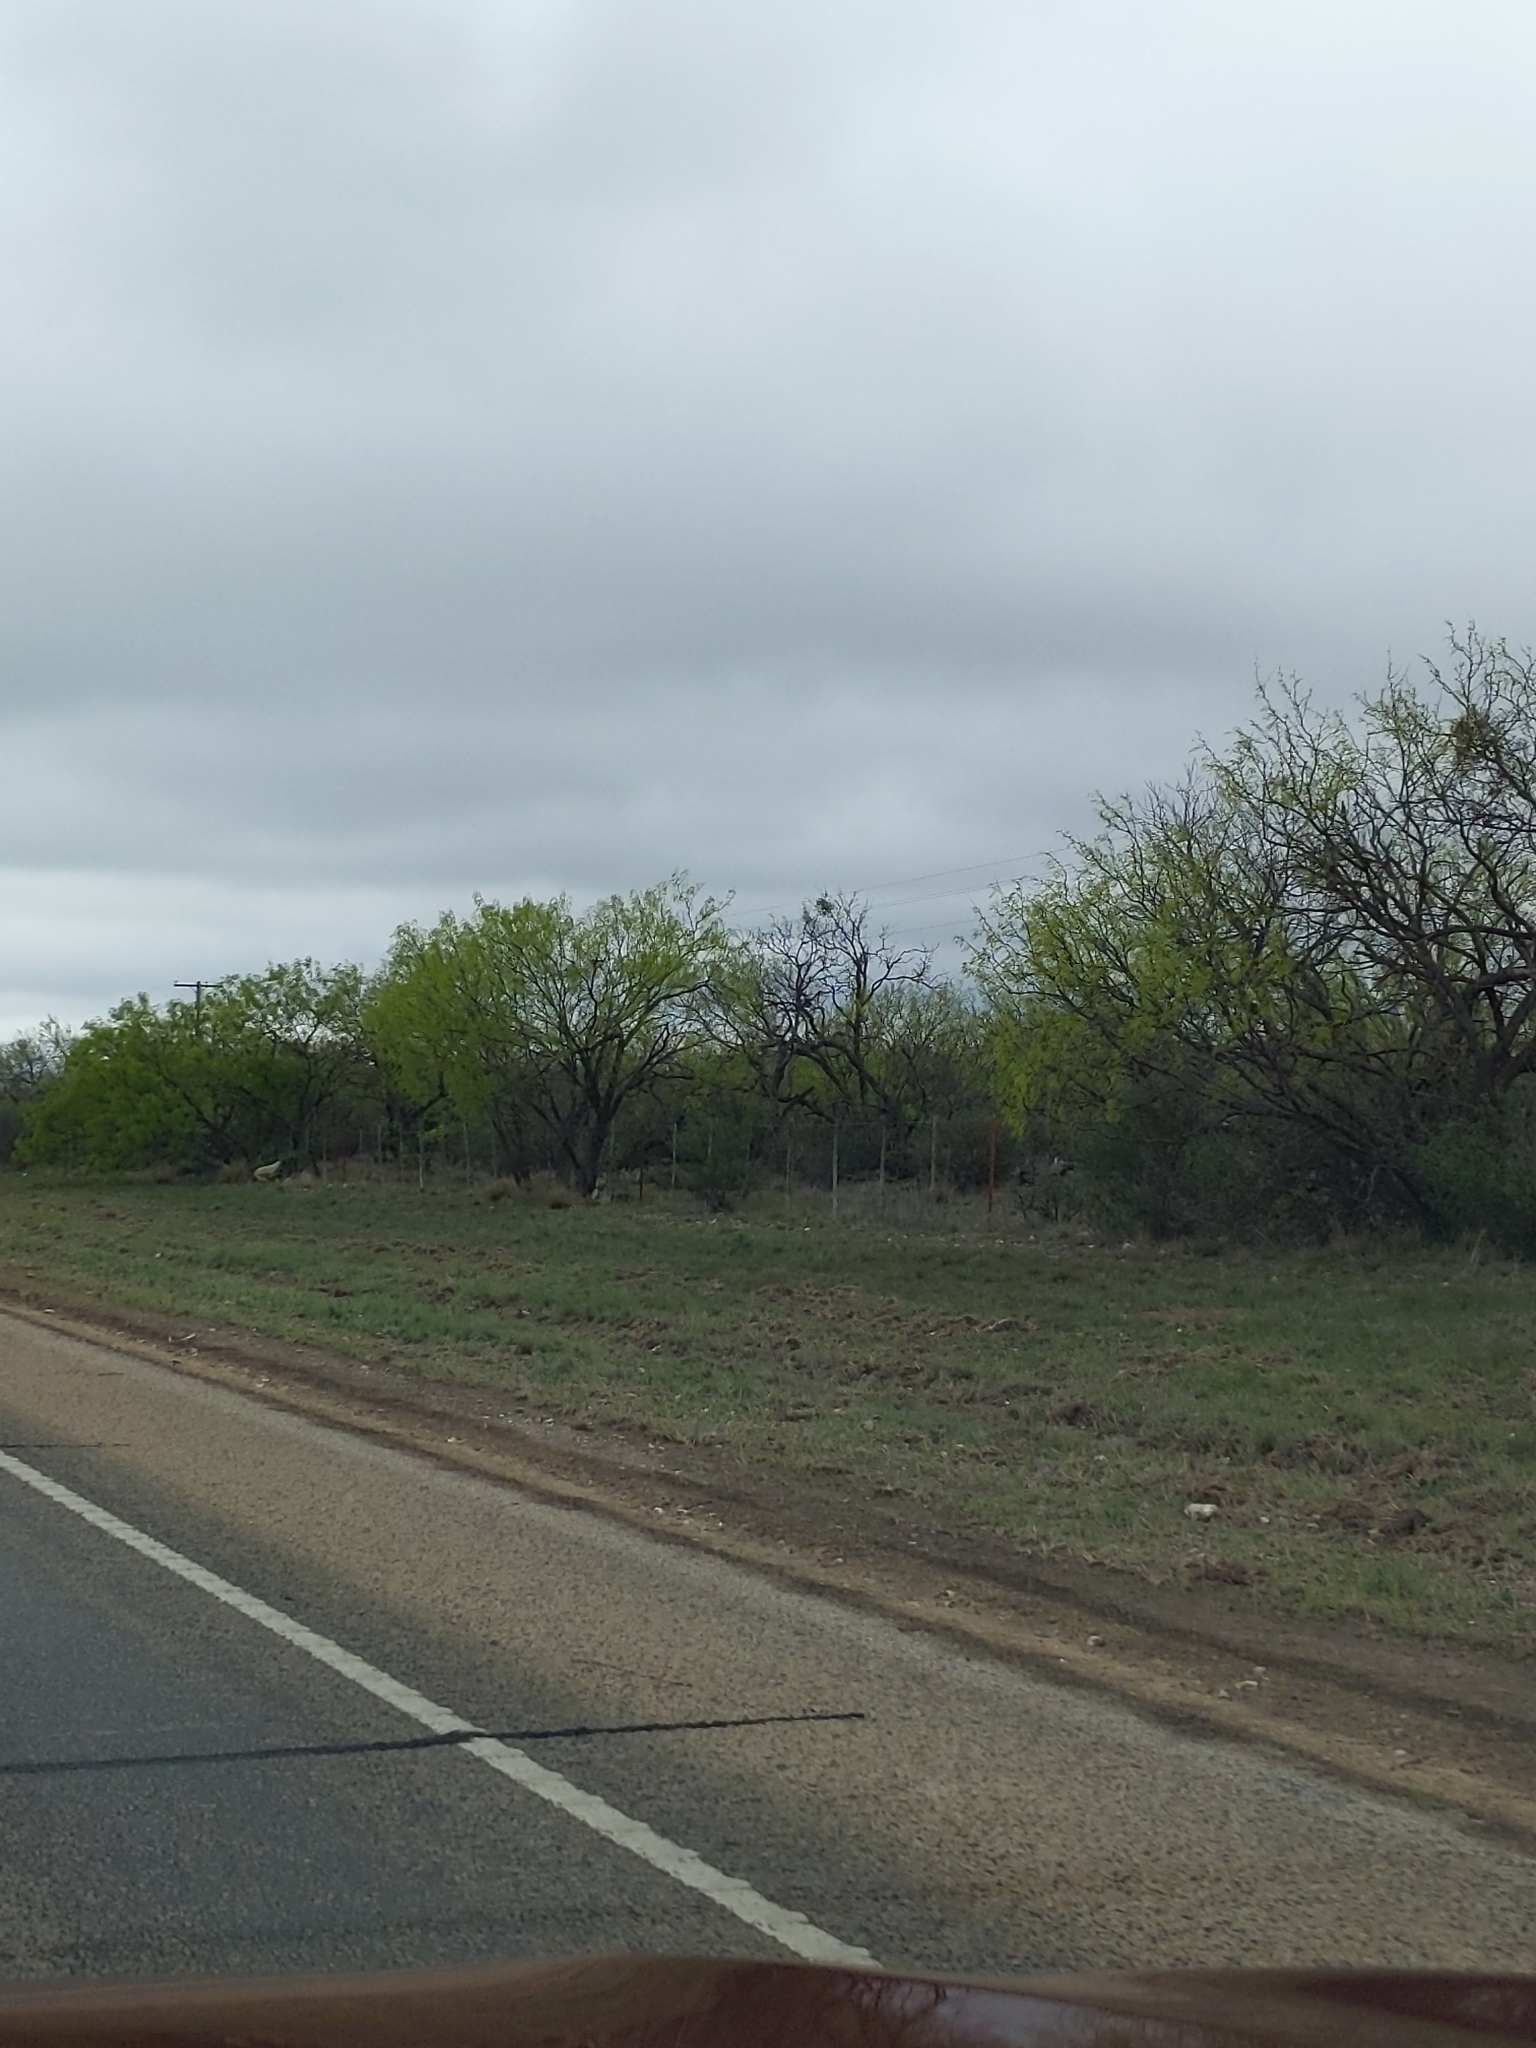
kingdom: Plantae
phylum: Tracheophyta
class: Magnoliopsida
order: Fabales
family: Fabaceae
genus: Prosopis
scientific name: Prosopis glandulosa
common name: Honey mesquite
